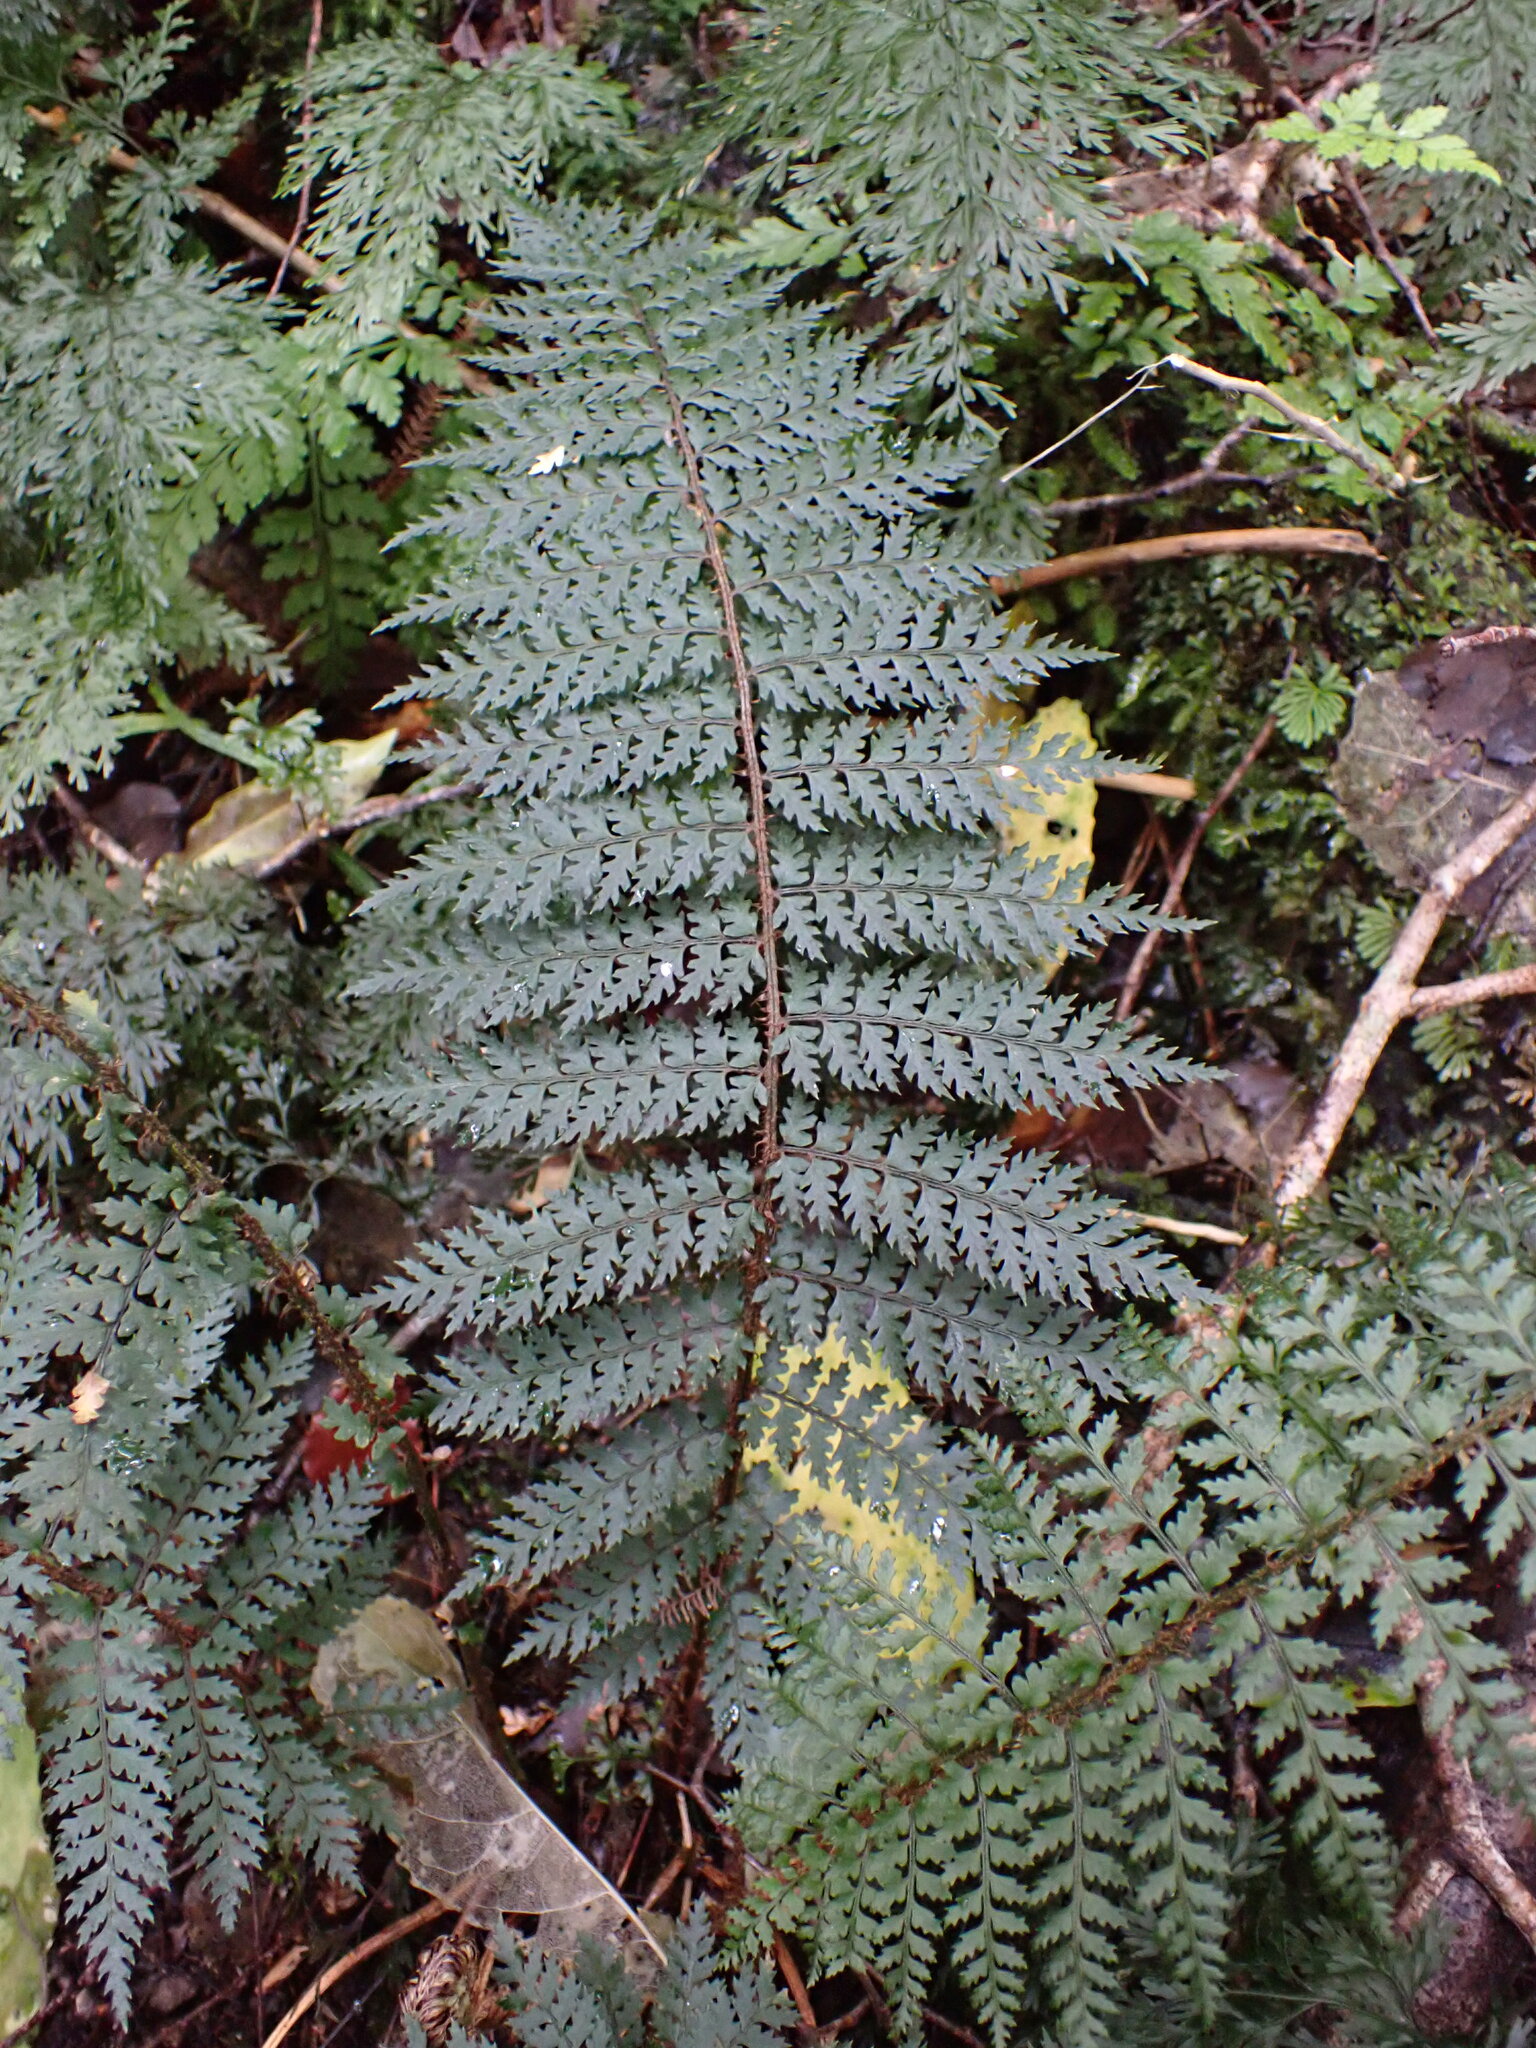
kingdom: Plantae
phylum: Tracheophyta
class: Polypodiopsida
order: Polypodiales
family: Dryopteridaceae
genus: Polystichum
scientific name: Polystichum silvaticum
